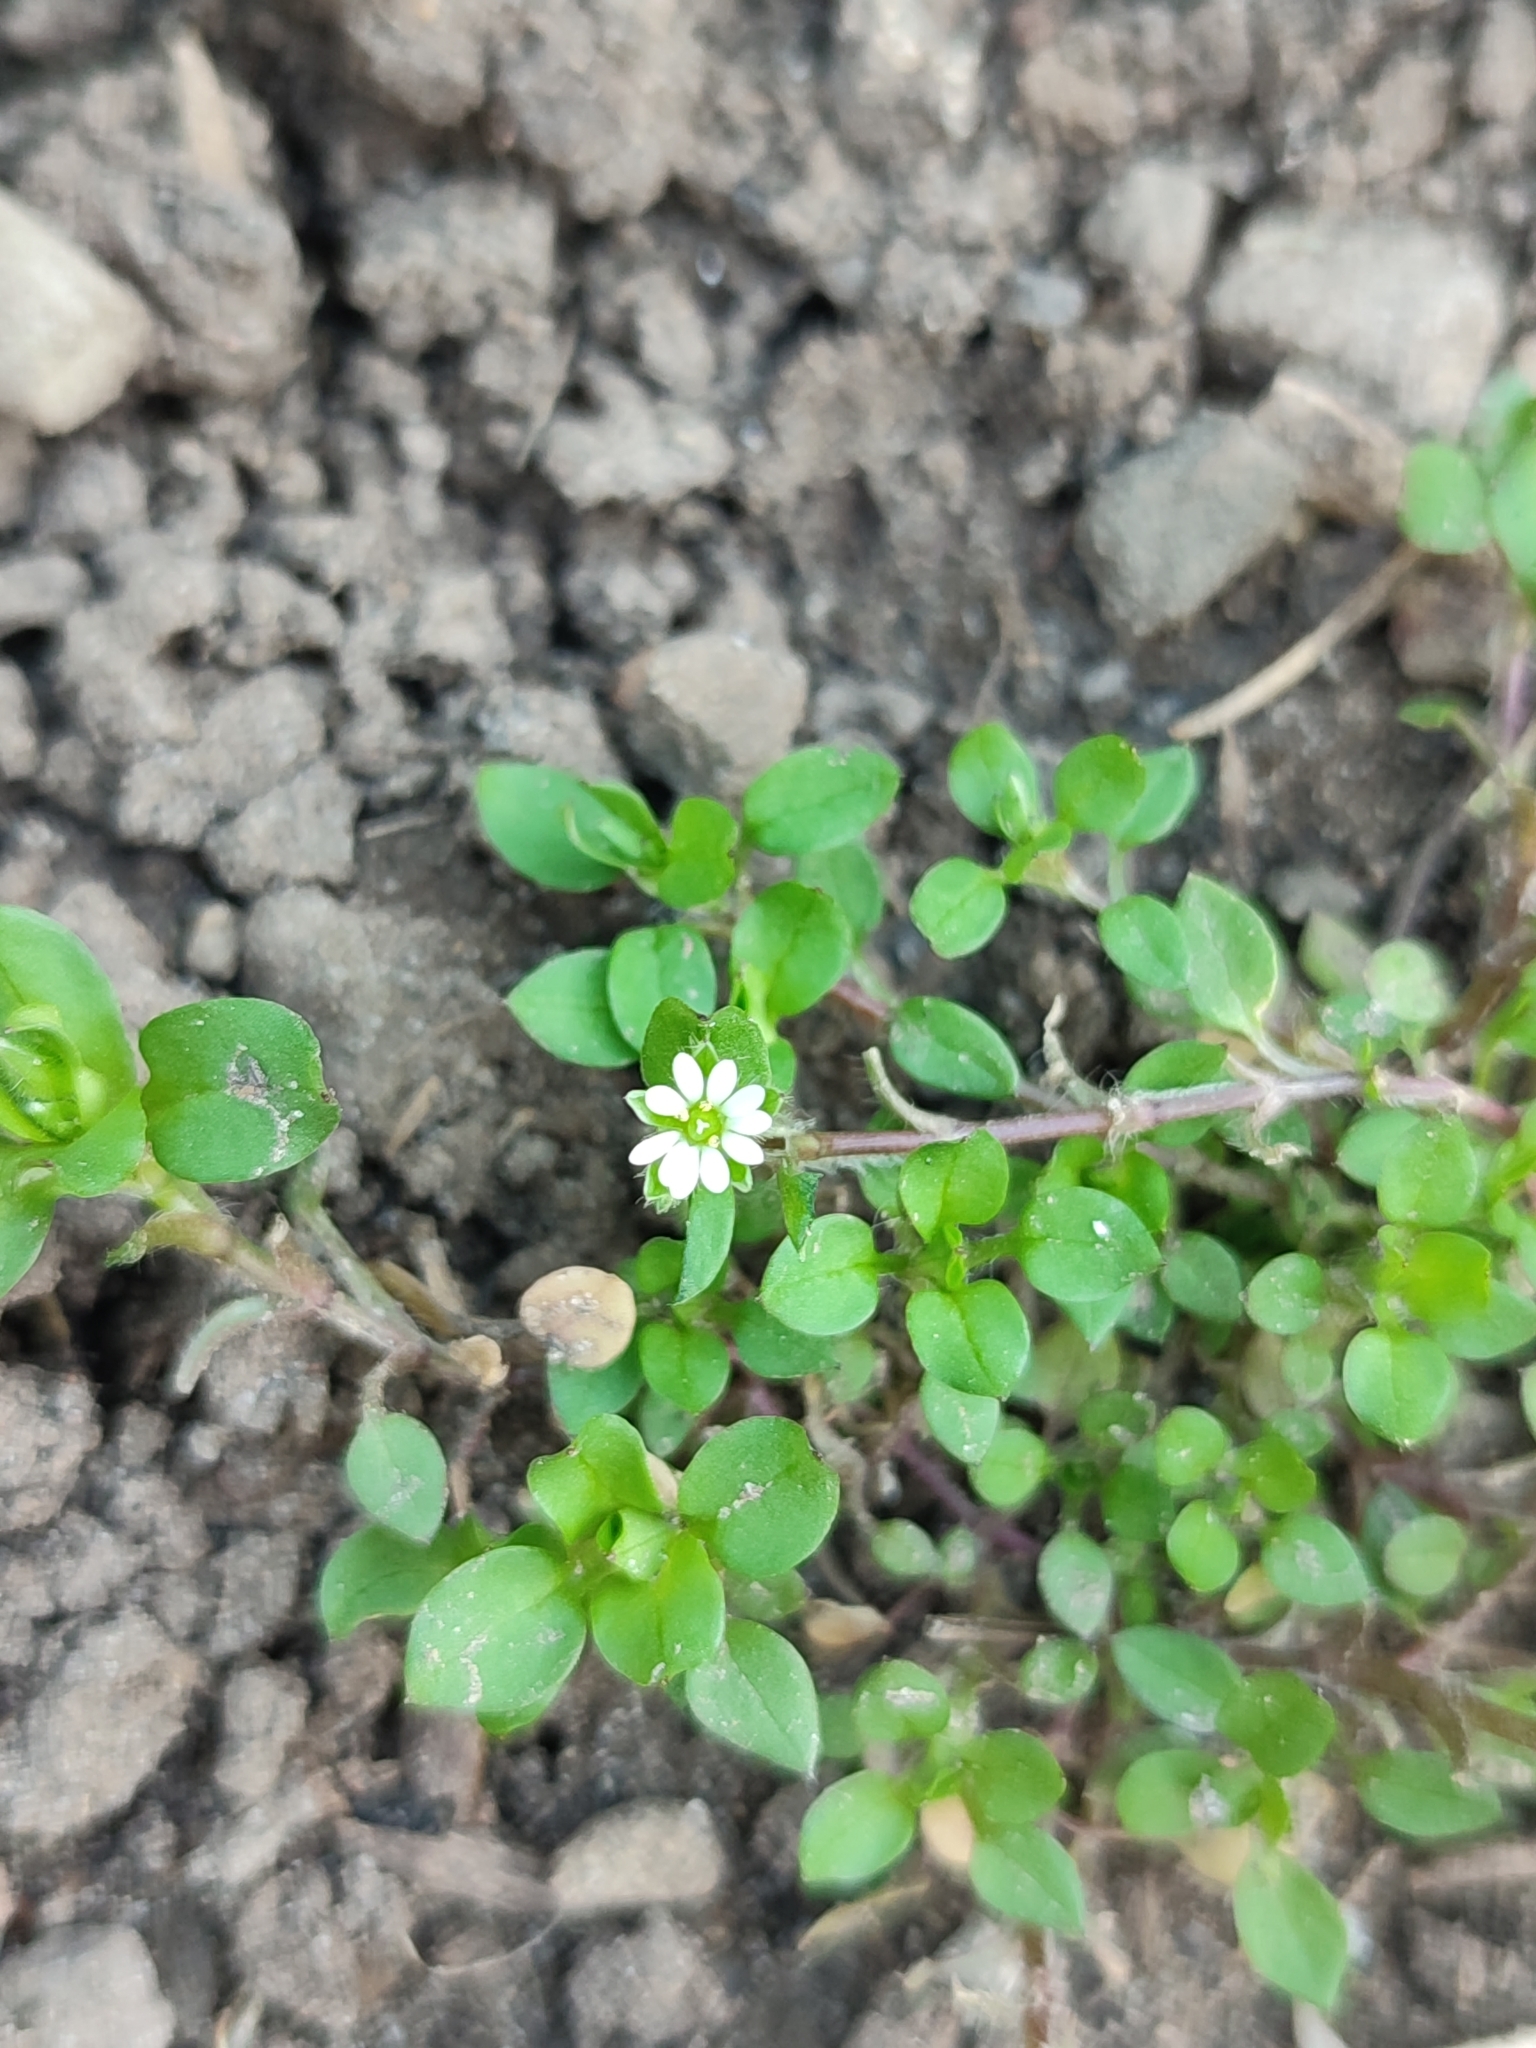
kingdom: Plantae
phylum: Tracheophyta
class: Magnoliopsida
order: Caryophyllales
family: Caryophyllaceae
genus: Stellaria
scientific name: Stellaria media
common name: Common chickweed
